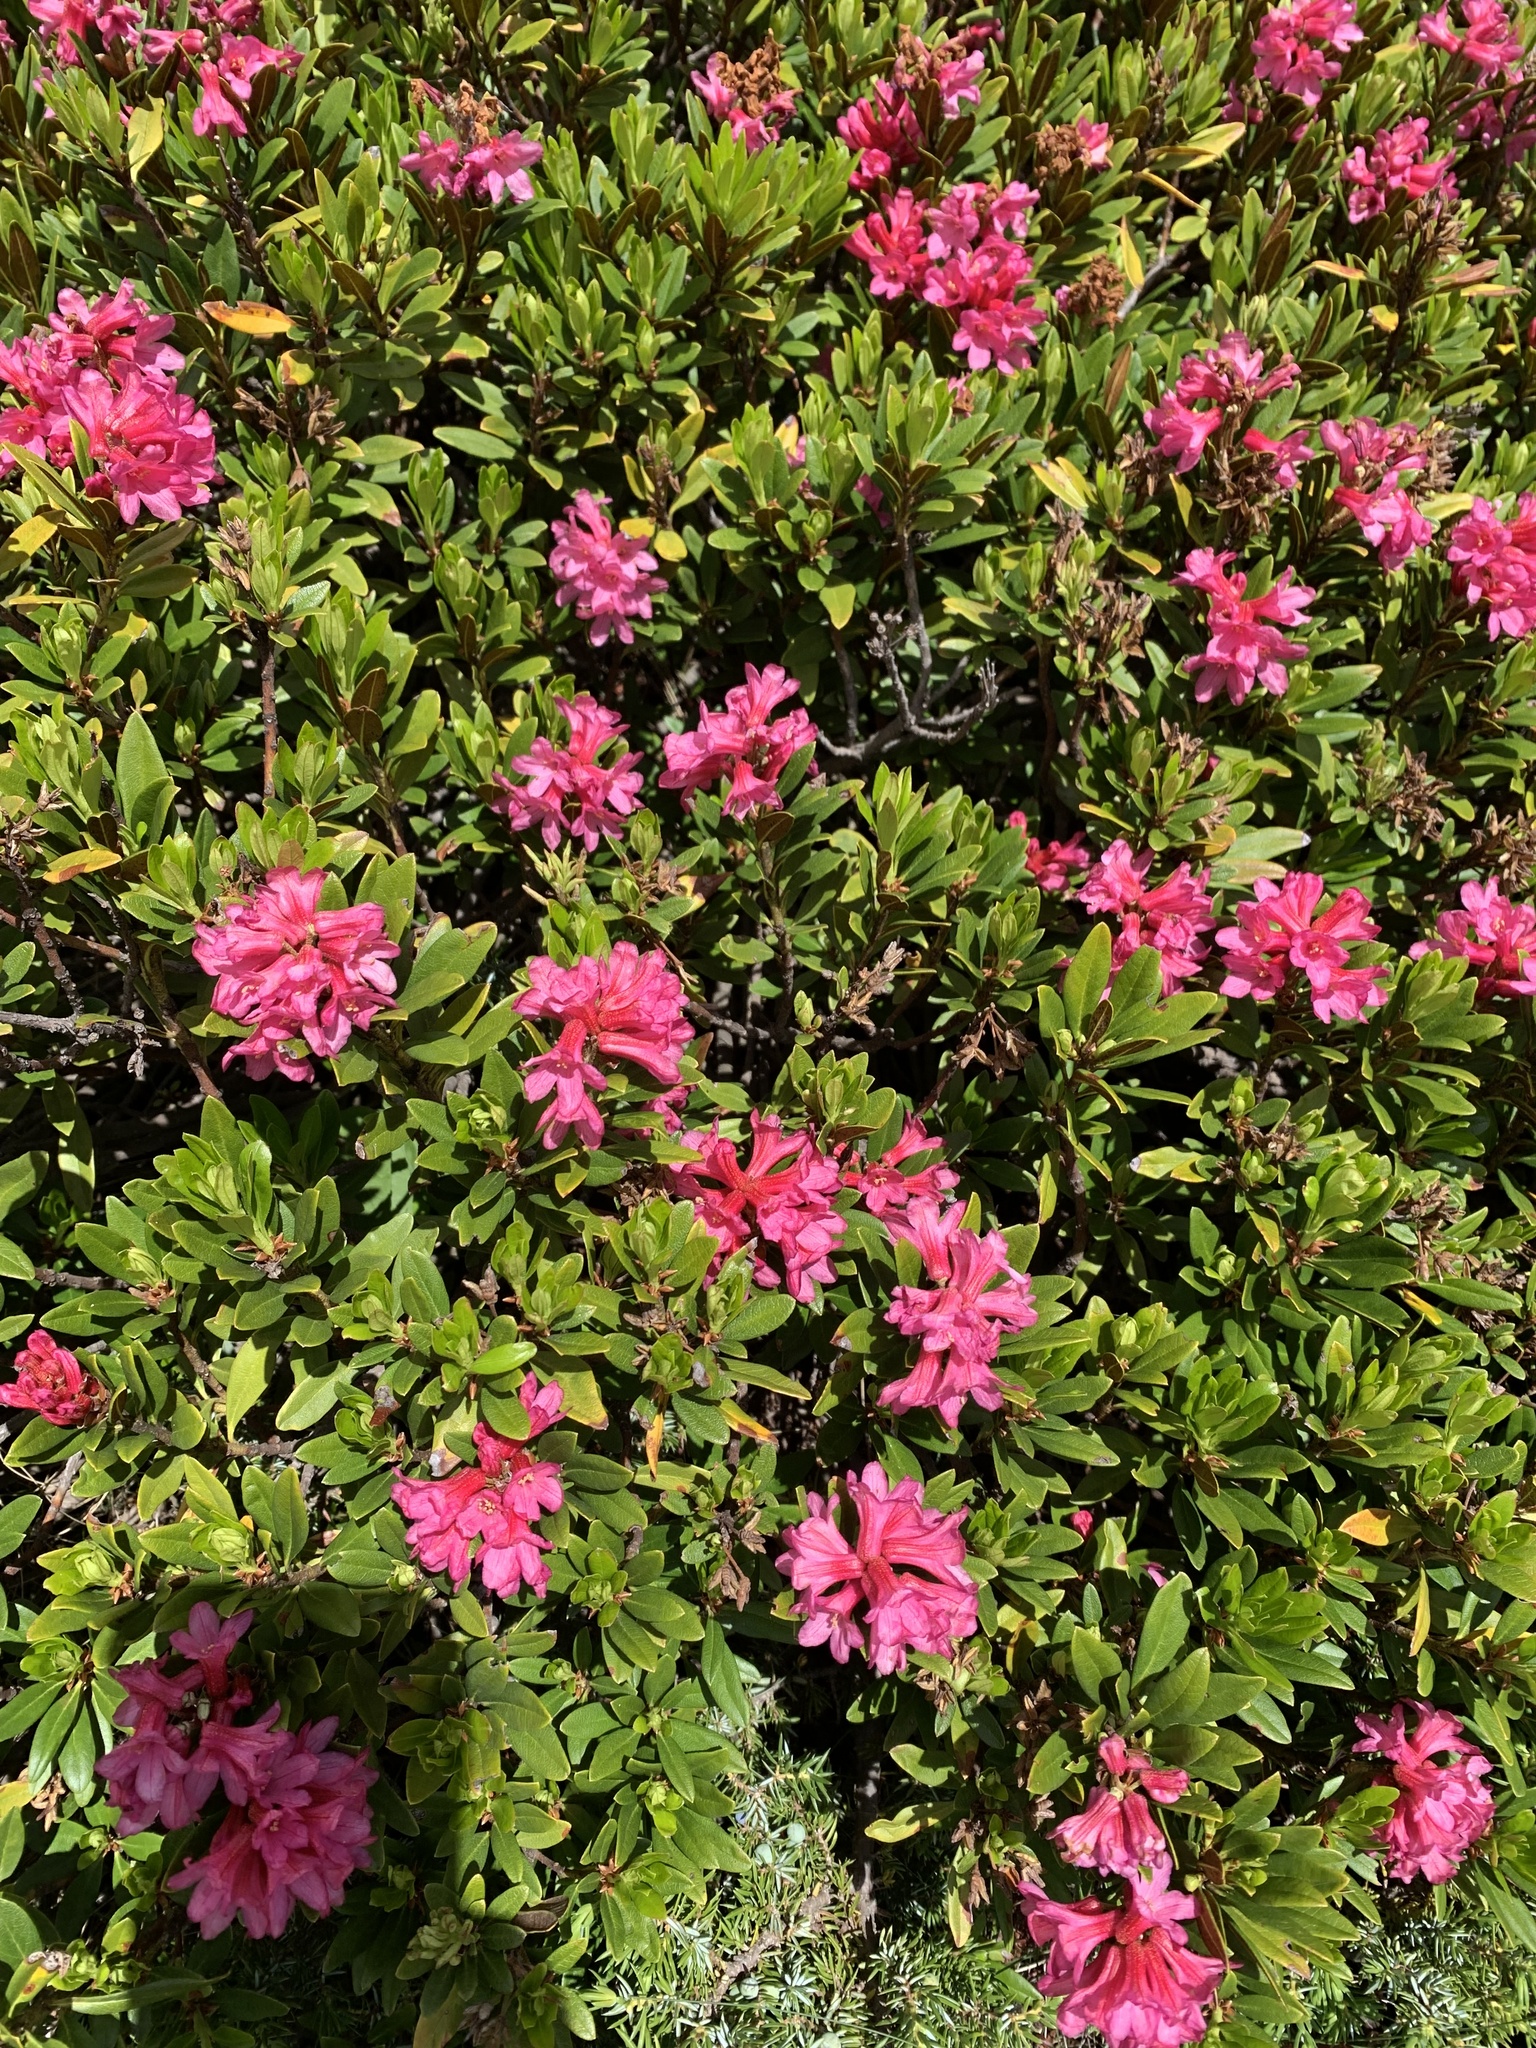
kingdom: Plantae
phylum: Tracheophyta
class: Magnoliopsida
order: Ericales
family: Ericaceae
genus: Rhododendron
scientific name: Rhododendron ferrugineum
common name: Alpenrose
